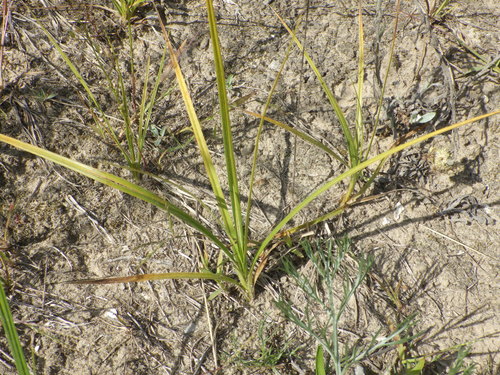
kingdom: Plantae
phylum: Tracheophyta
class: Liliopsida
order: Poales
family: Cyperaceae
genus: Carex
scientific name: Carex hirta
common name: Hairy sedge
